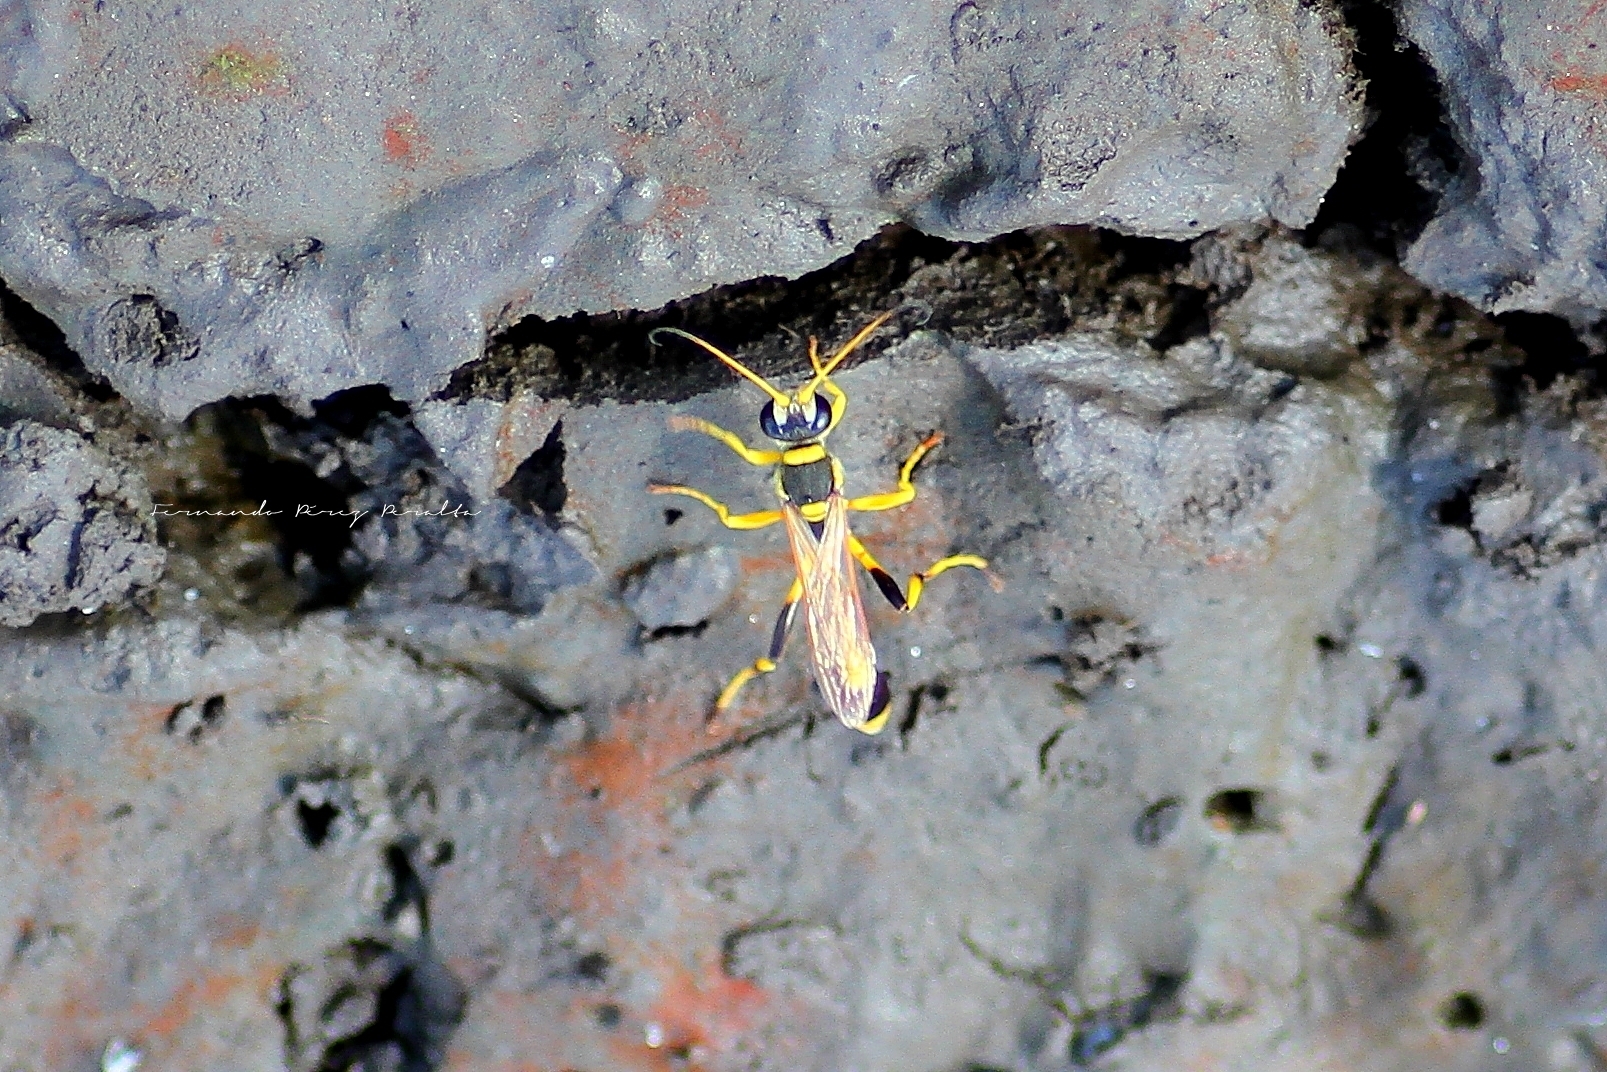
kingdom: Animalia
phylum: Arthropoda
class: Insecta
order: Hymenoptera
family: Sphecidae
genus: Sceliphron
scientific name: Sceliphron laetum
